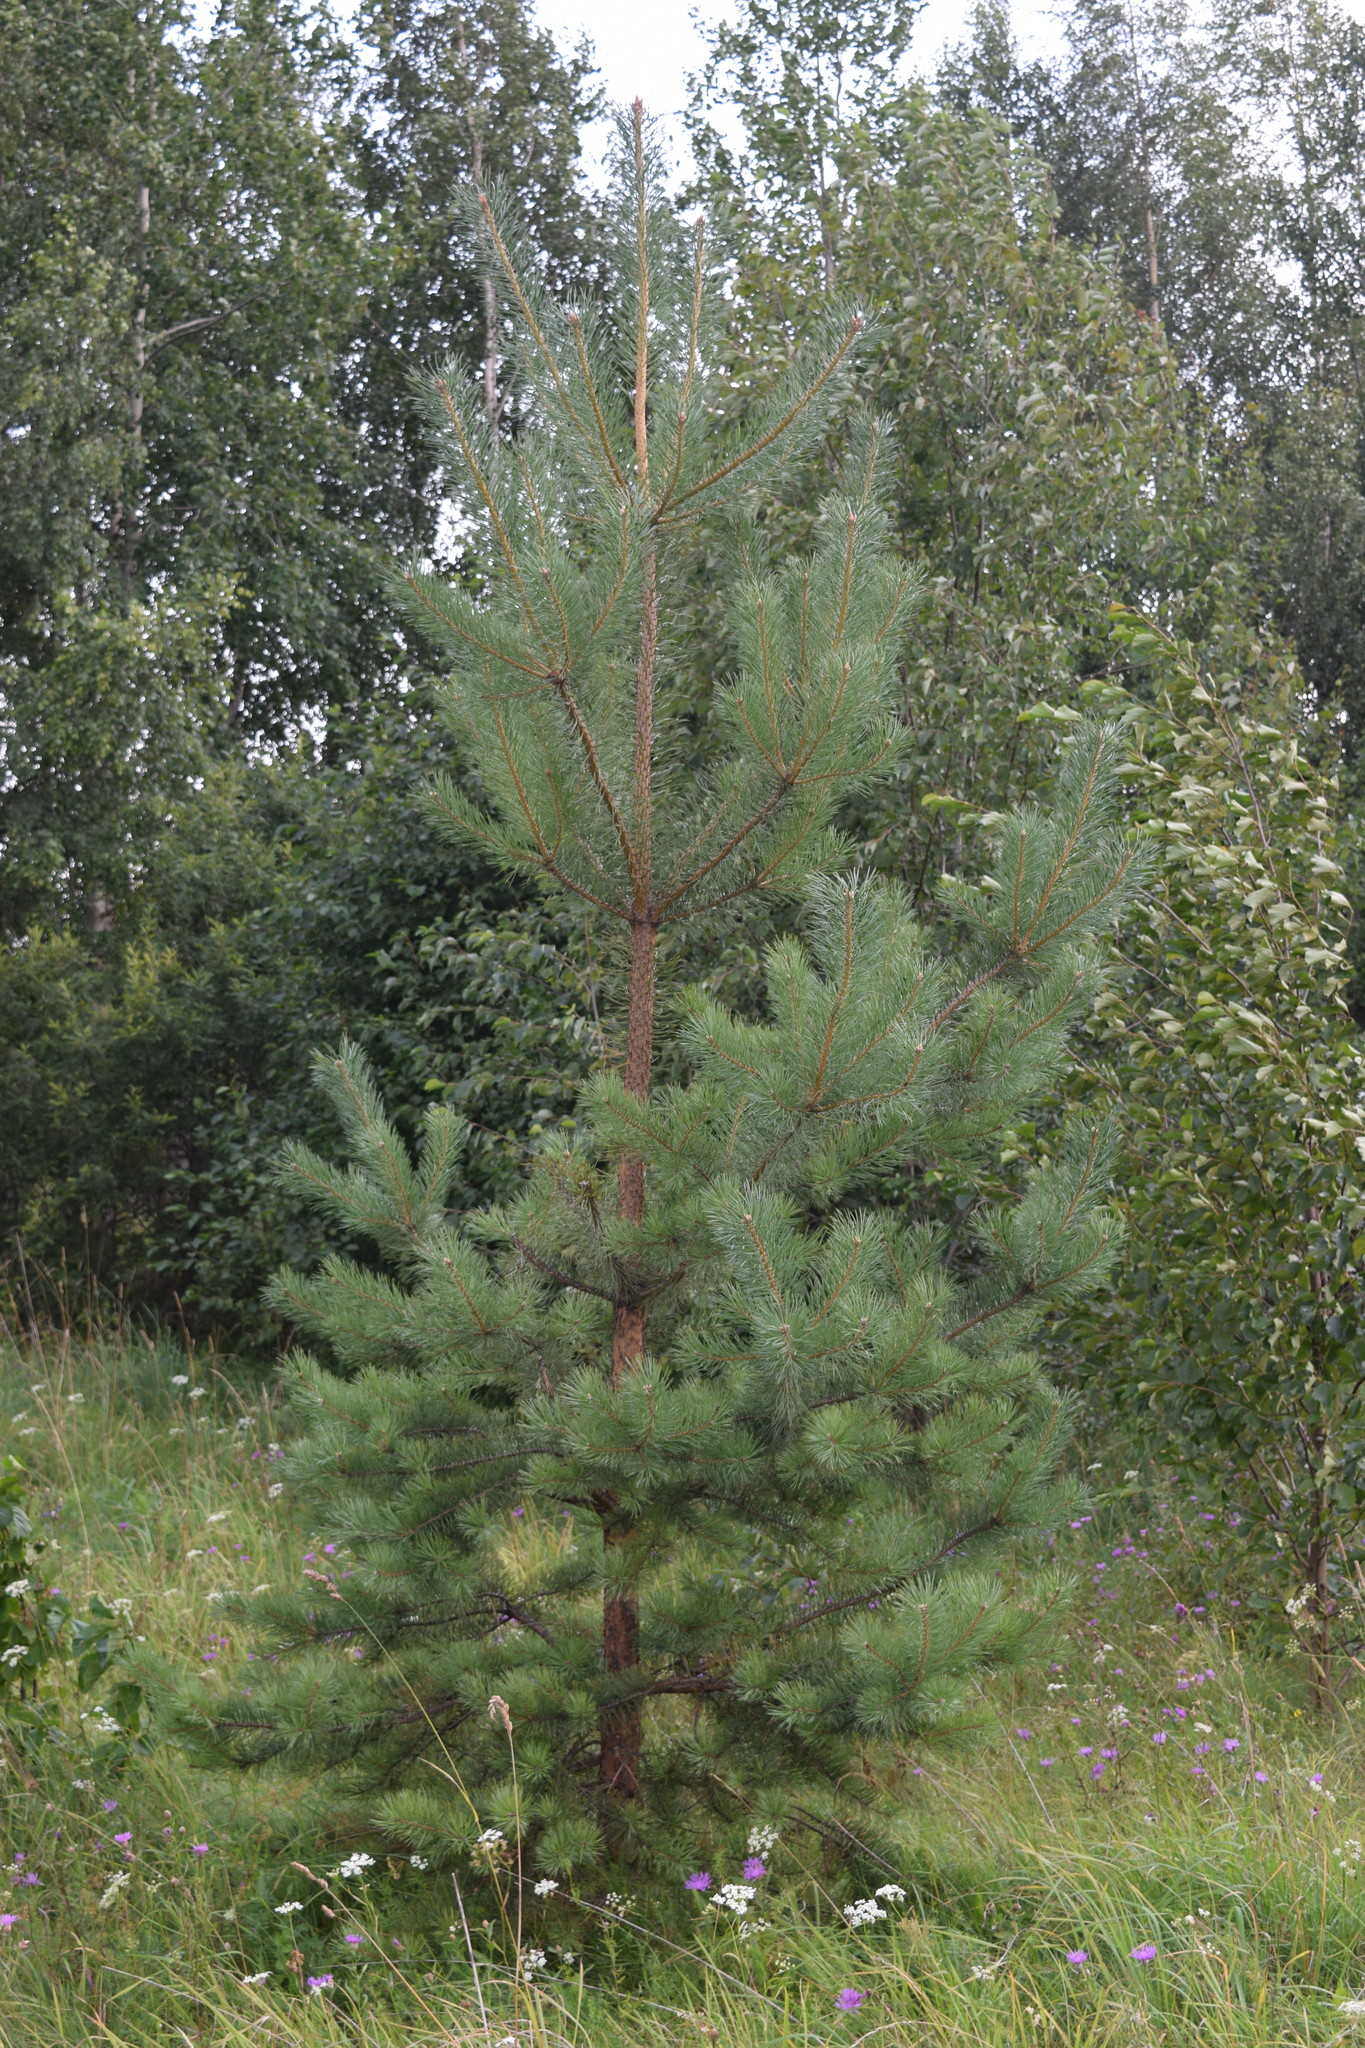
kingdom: Plantae
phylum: Tracheophyta
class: Pinopsida
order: Pinales
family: Pinaceae
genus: Pinus
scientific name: Pinus sylvestris
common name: Scots pine
